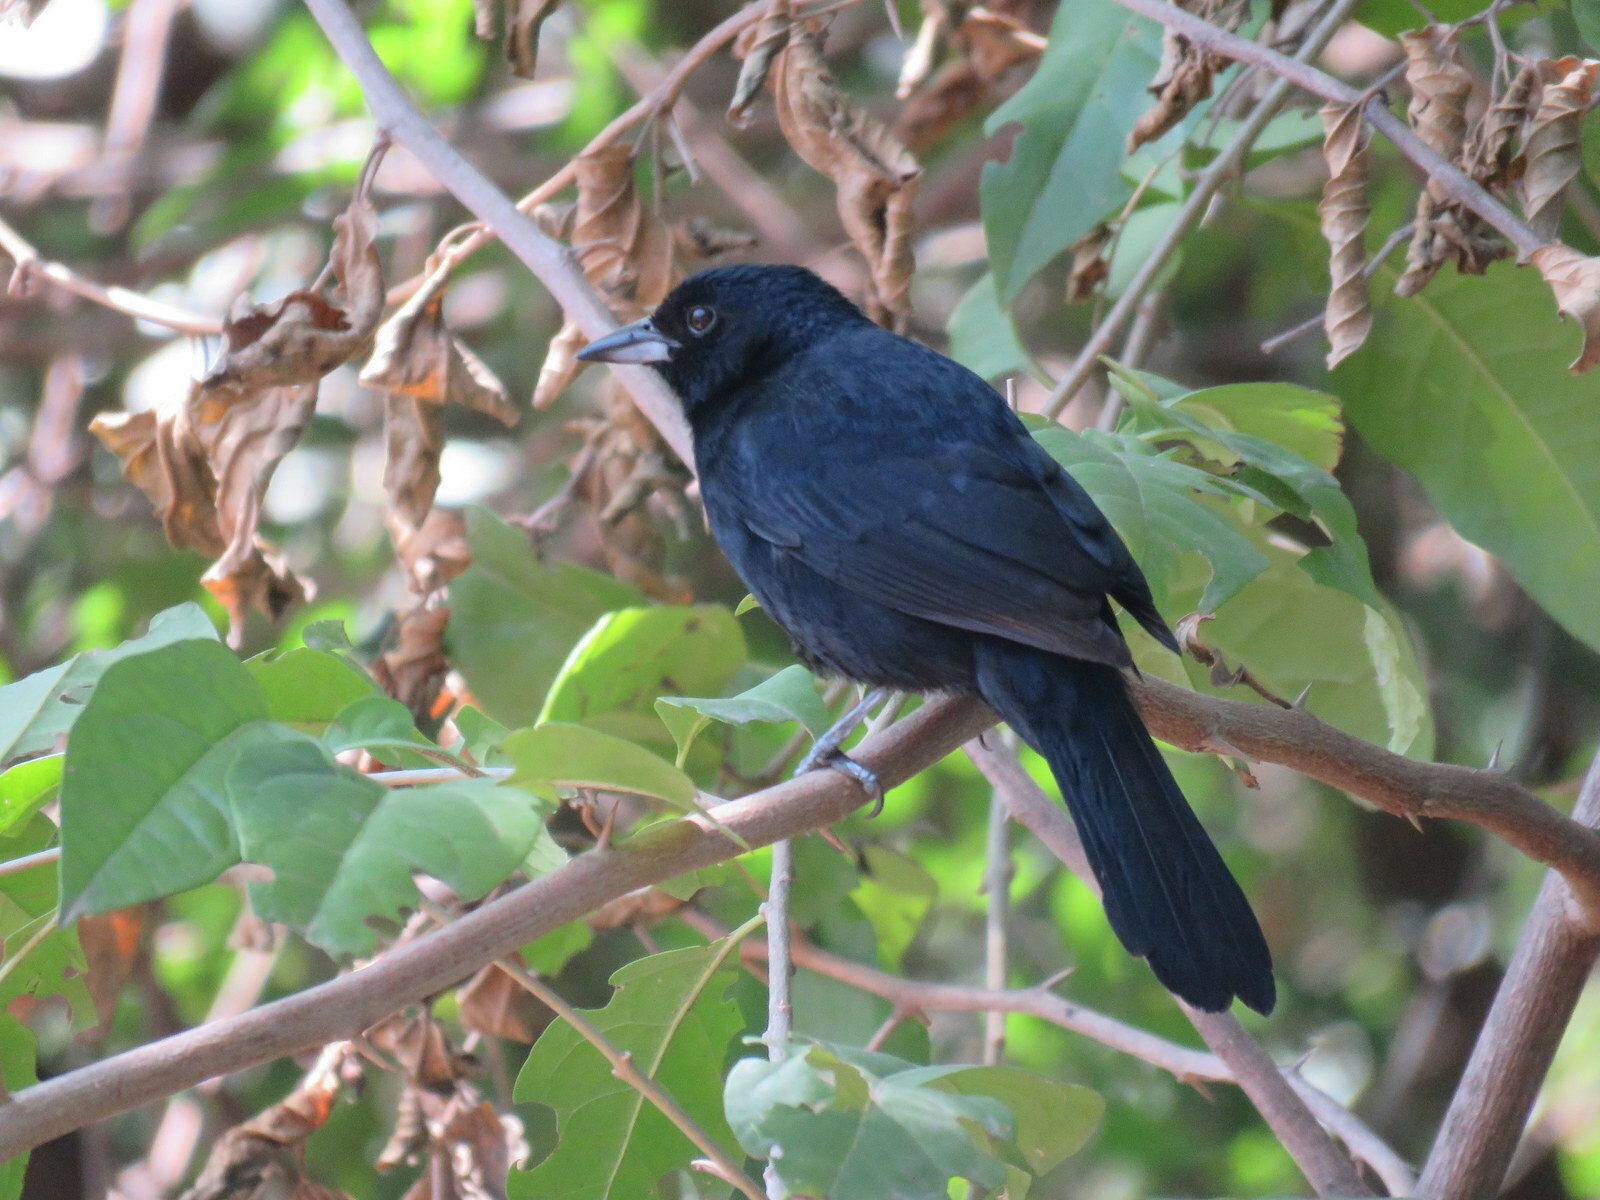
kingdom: Animalia
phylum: Chordata
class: Aves
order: Passeriformes
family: Thraupidae
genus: Tachyphonus
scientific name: Tachyphonus rufus
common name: White-lined tanager
